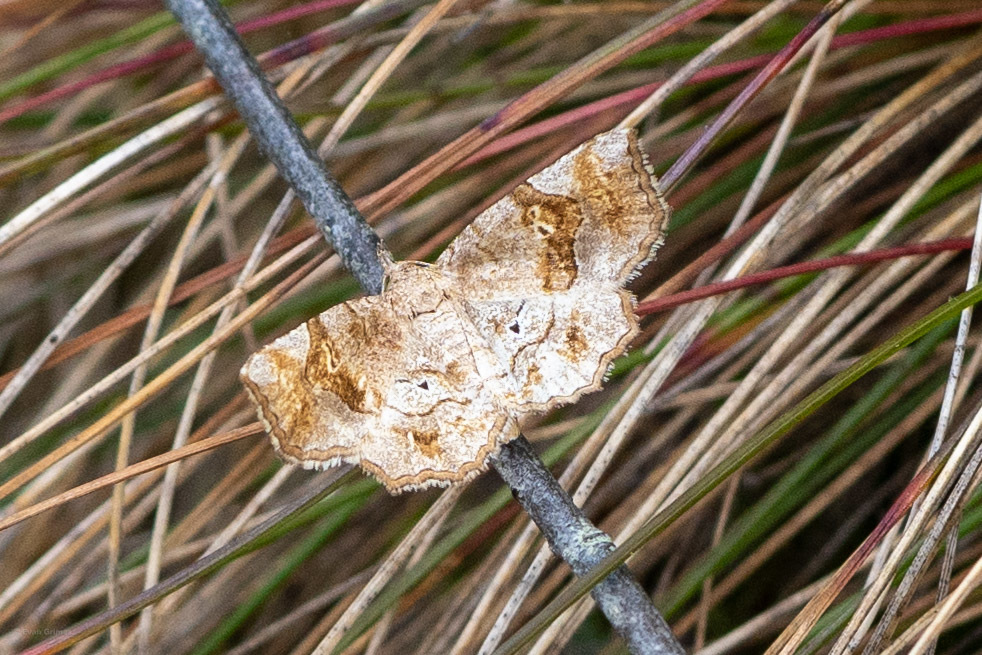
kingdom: Animalia
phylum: Arthropoda
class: Insecta
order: Lepidoptera
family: Erebidae
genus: Pangrapta
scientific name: Pangrapta decoralis
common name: Decorated owlet
